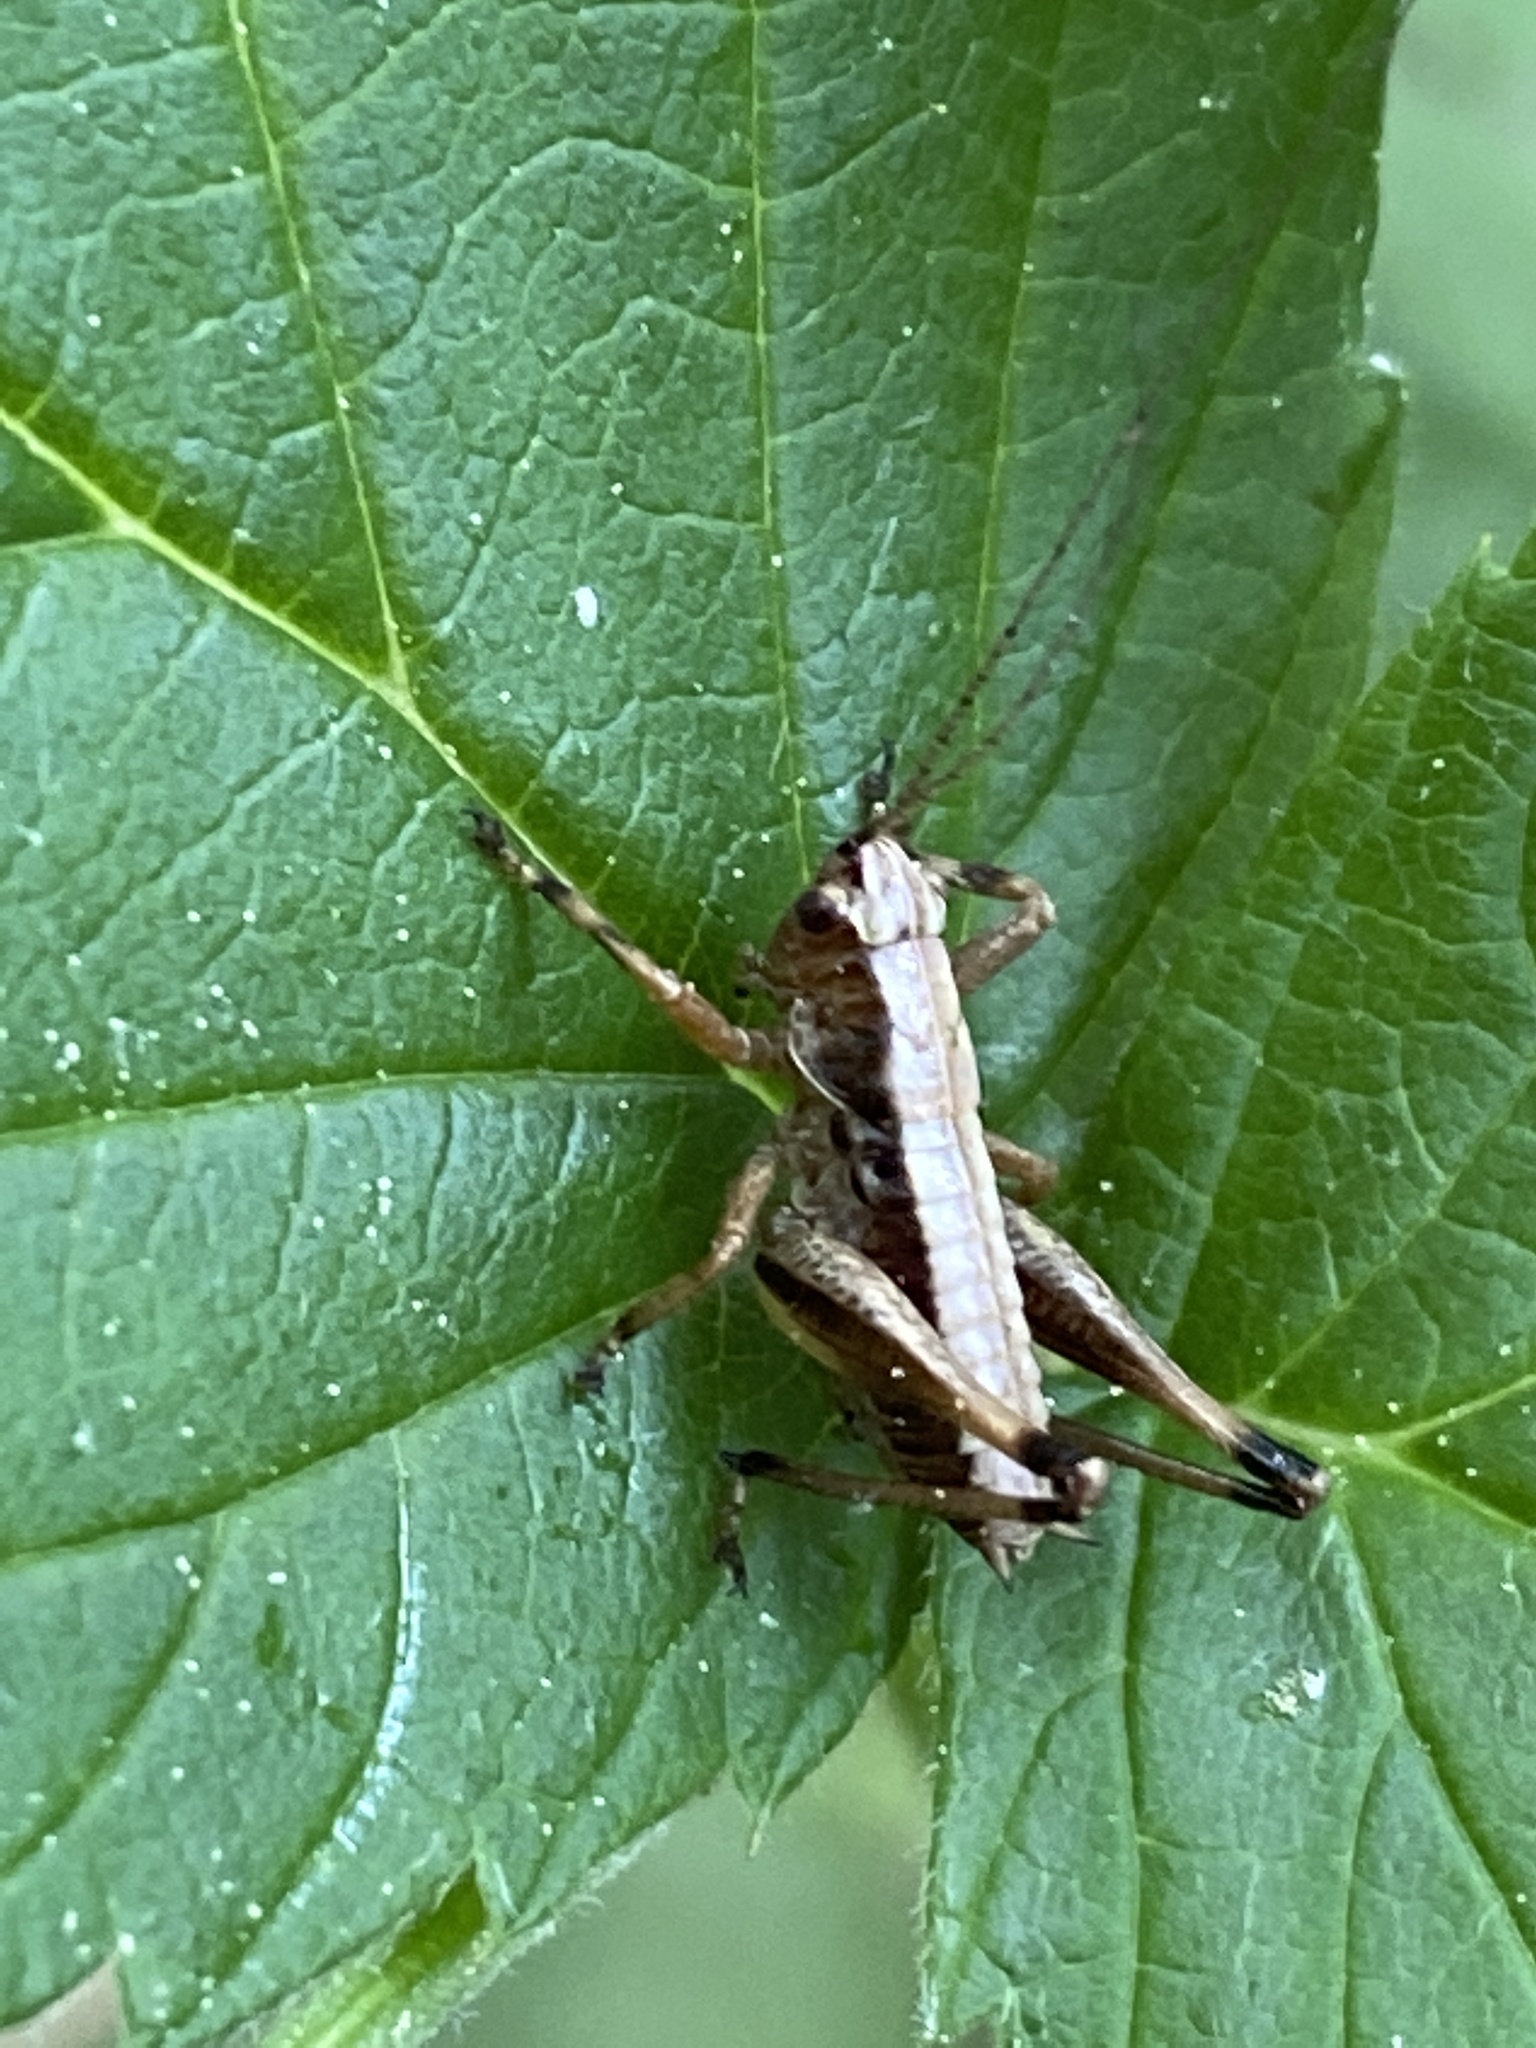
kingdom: Animalia
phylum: Arthropoda
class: Insecta
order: Orthoptera
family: Tettigoniidae
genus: Pholidoptera
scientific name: Pholidoptera griseoaptera
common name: Dark bush-cricket
